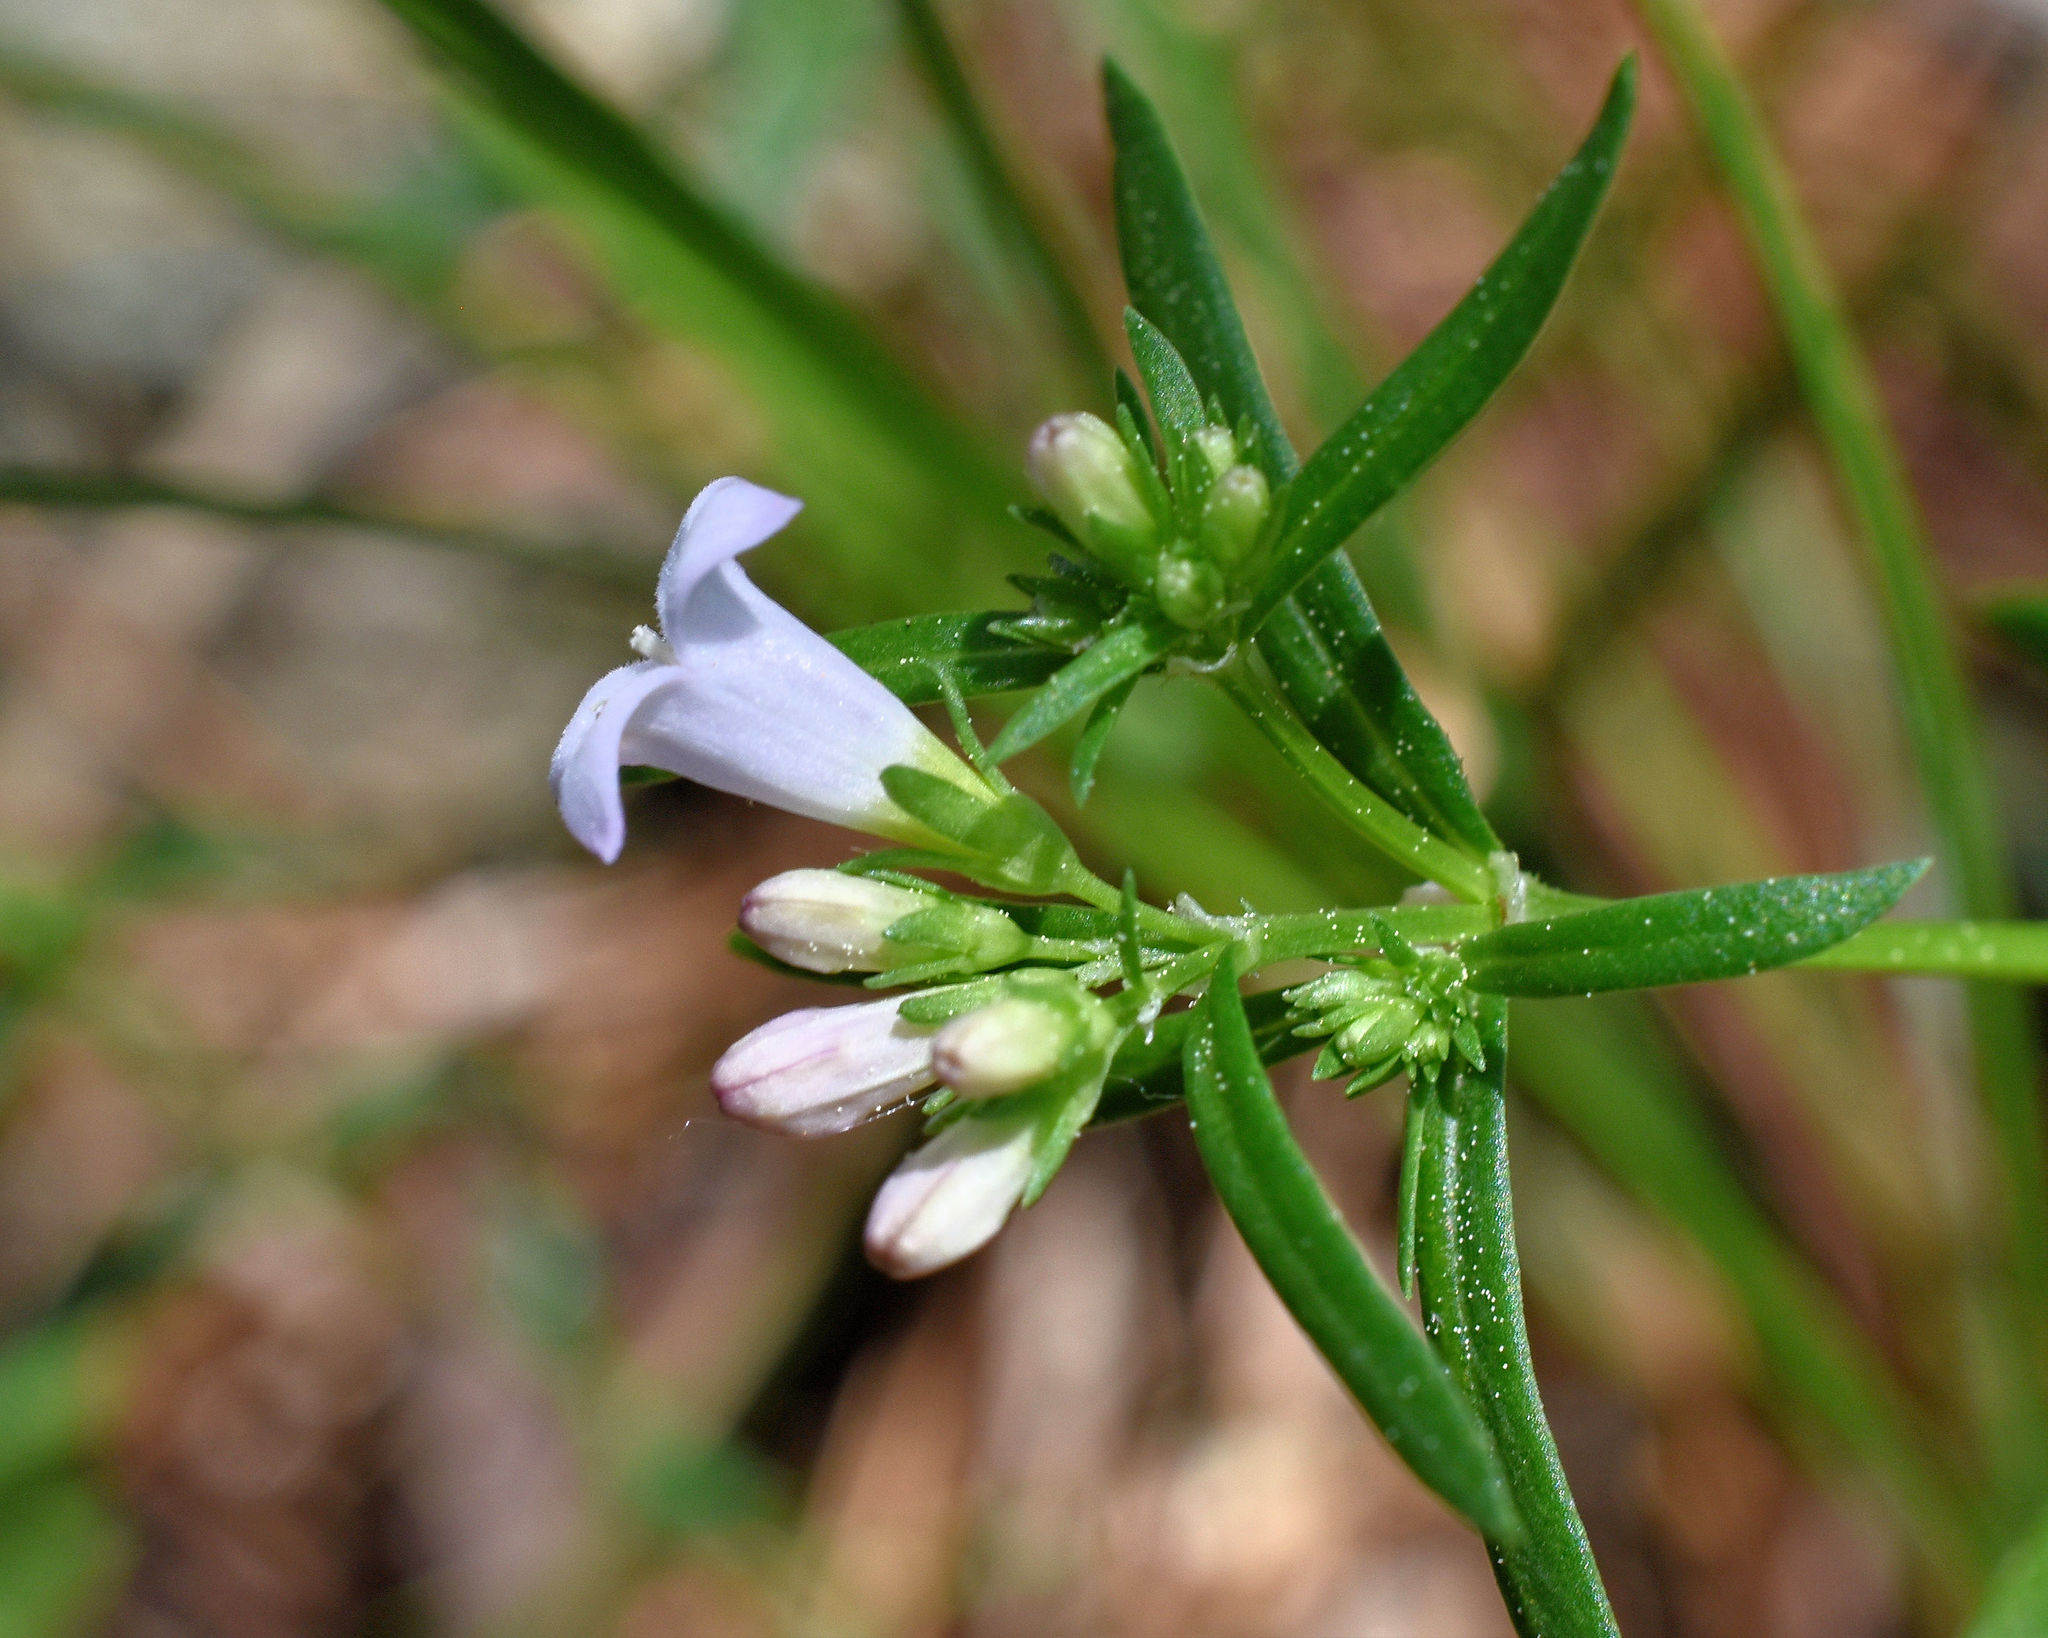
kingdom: Plantae
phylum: Tracheophyta
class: Magnoliopsida
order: Gentianales
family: Rubiaceae
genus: Houstonia
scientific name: Houstonia longifolia
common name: Long-leaved bluets
